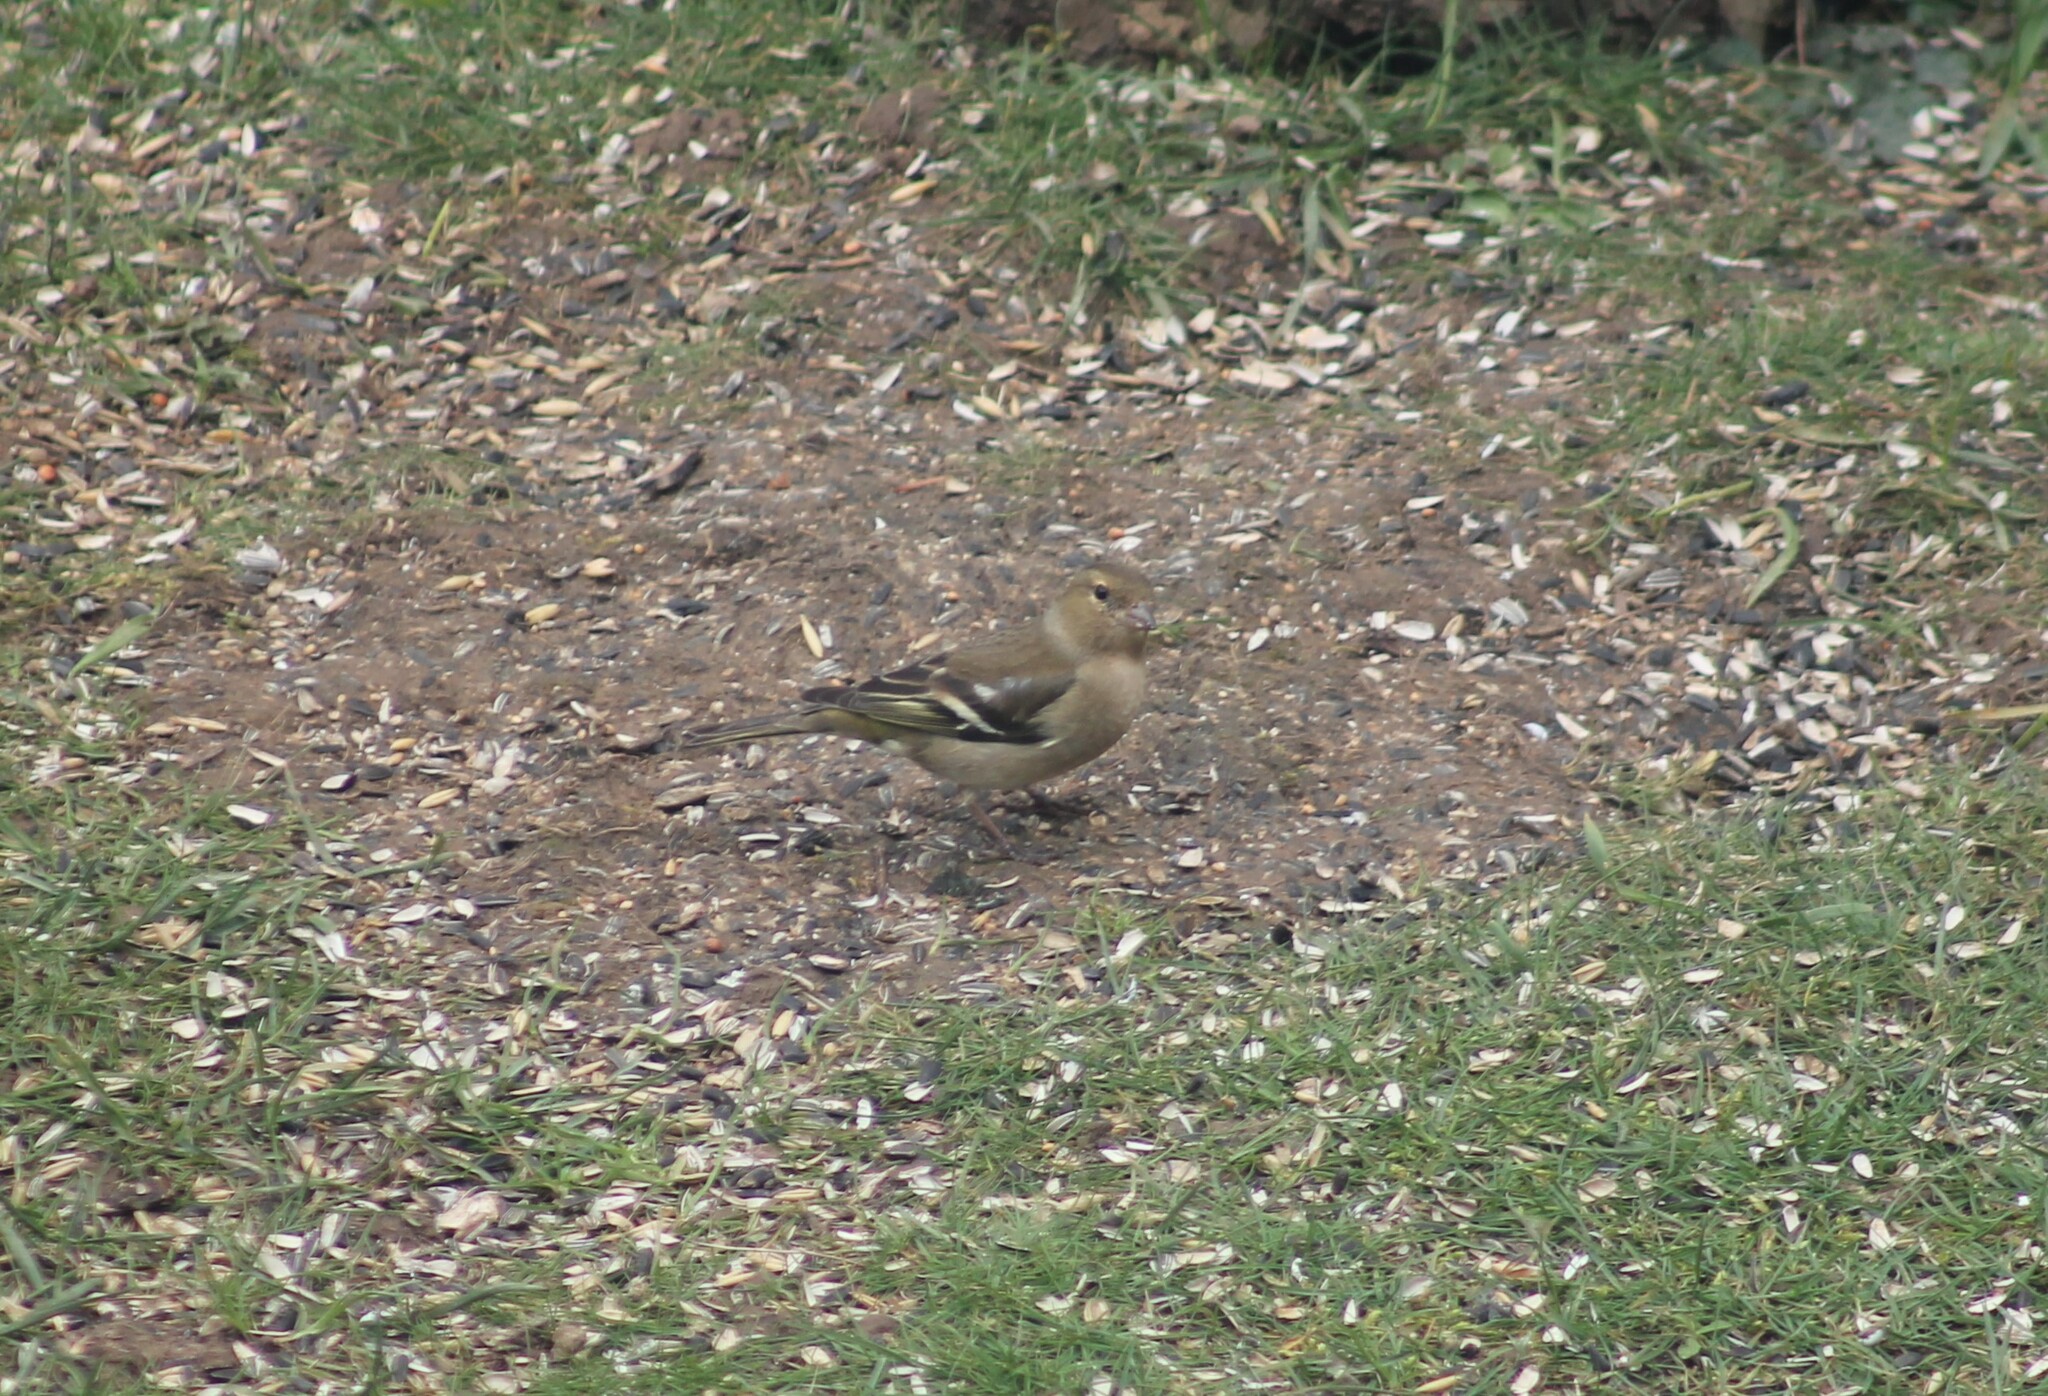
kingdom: Animalia
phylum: Chordata
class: Aves
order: Passeriformes
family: Fringillidae
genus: Fringilla
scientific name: Fringilla coelebs
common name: Common chaffinch
